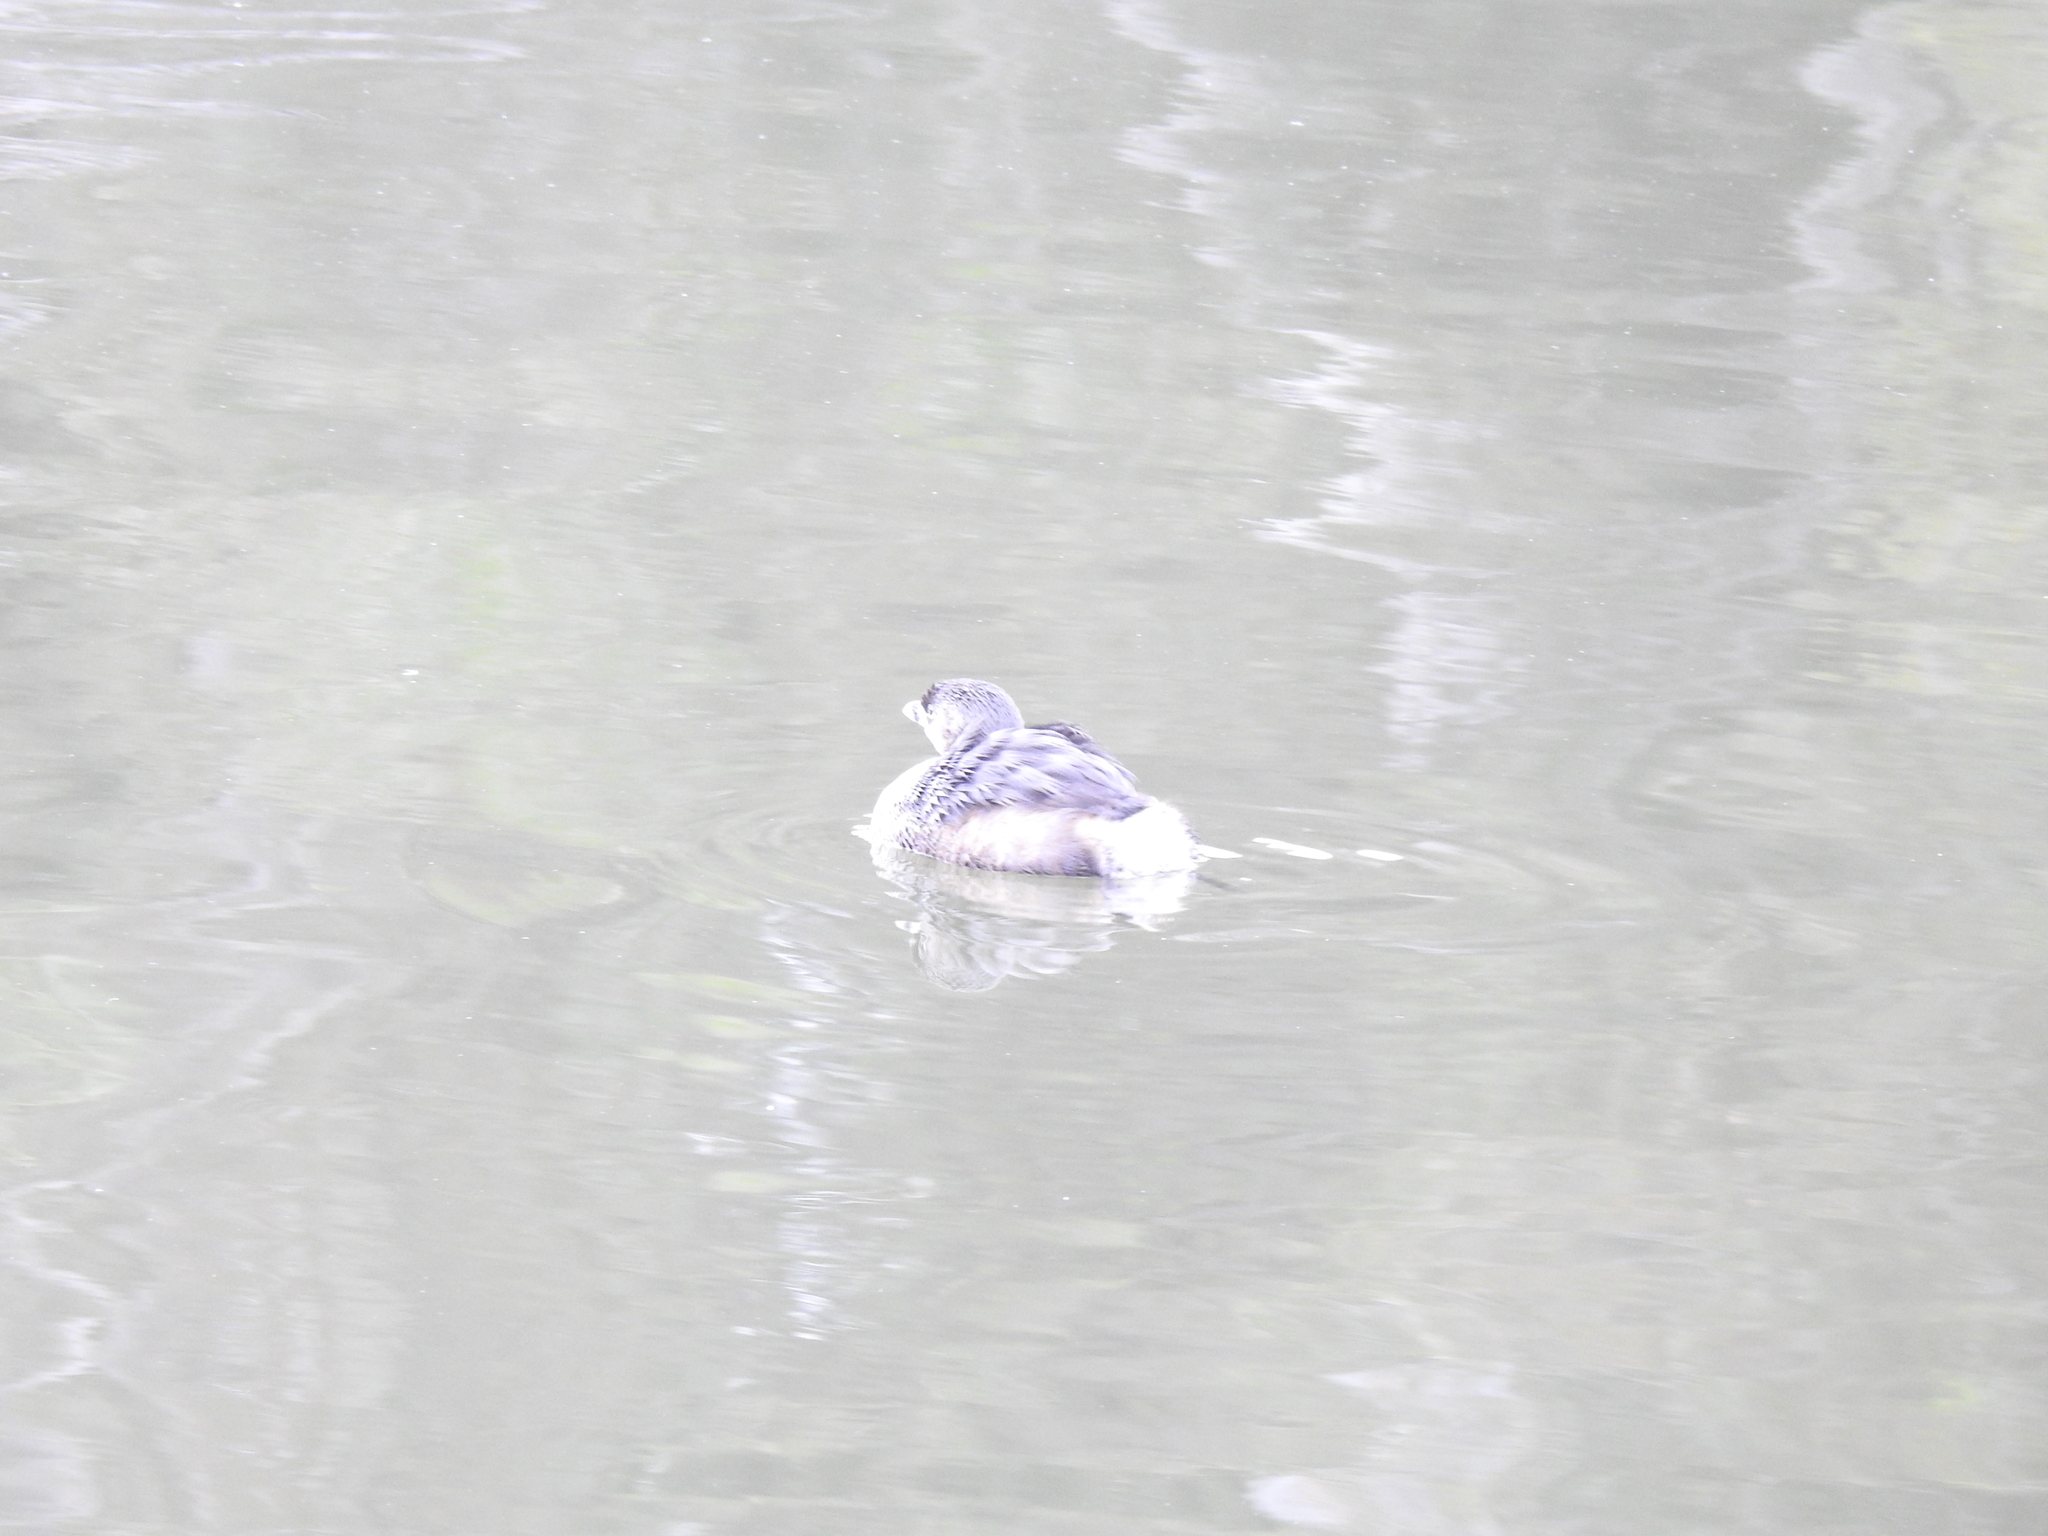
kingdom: Animalia
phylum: Chordata
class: Aves
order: Podicipediformes
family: Podicipedidae
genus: Podilymbus
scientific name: Podilymbus podiceps
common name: Pied-billed grebe
